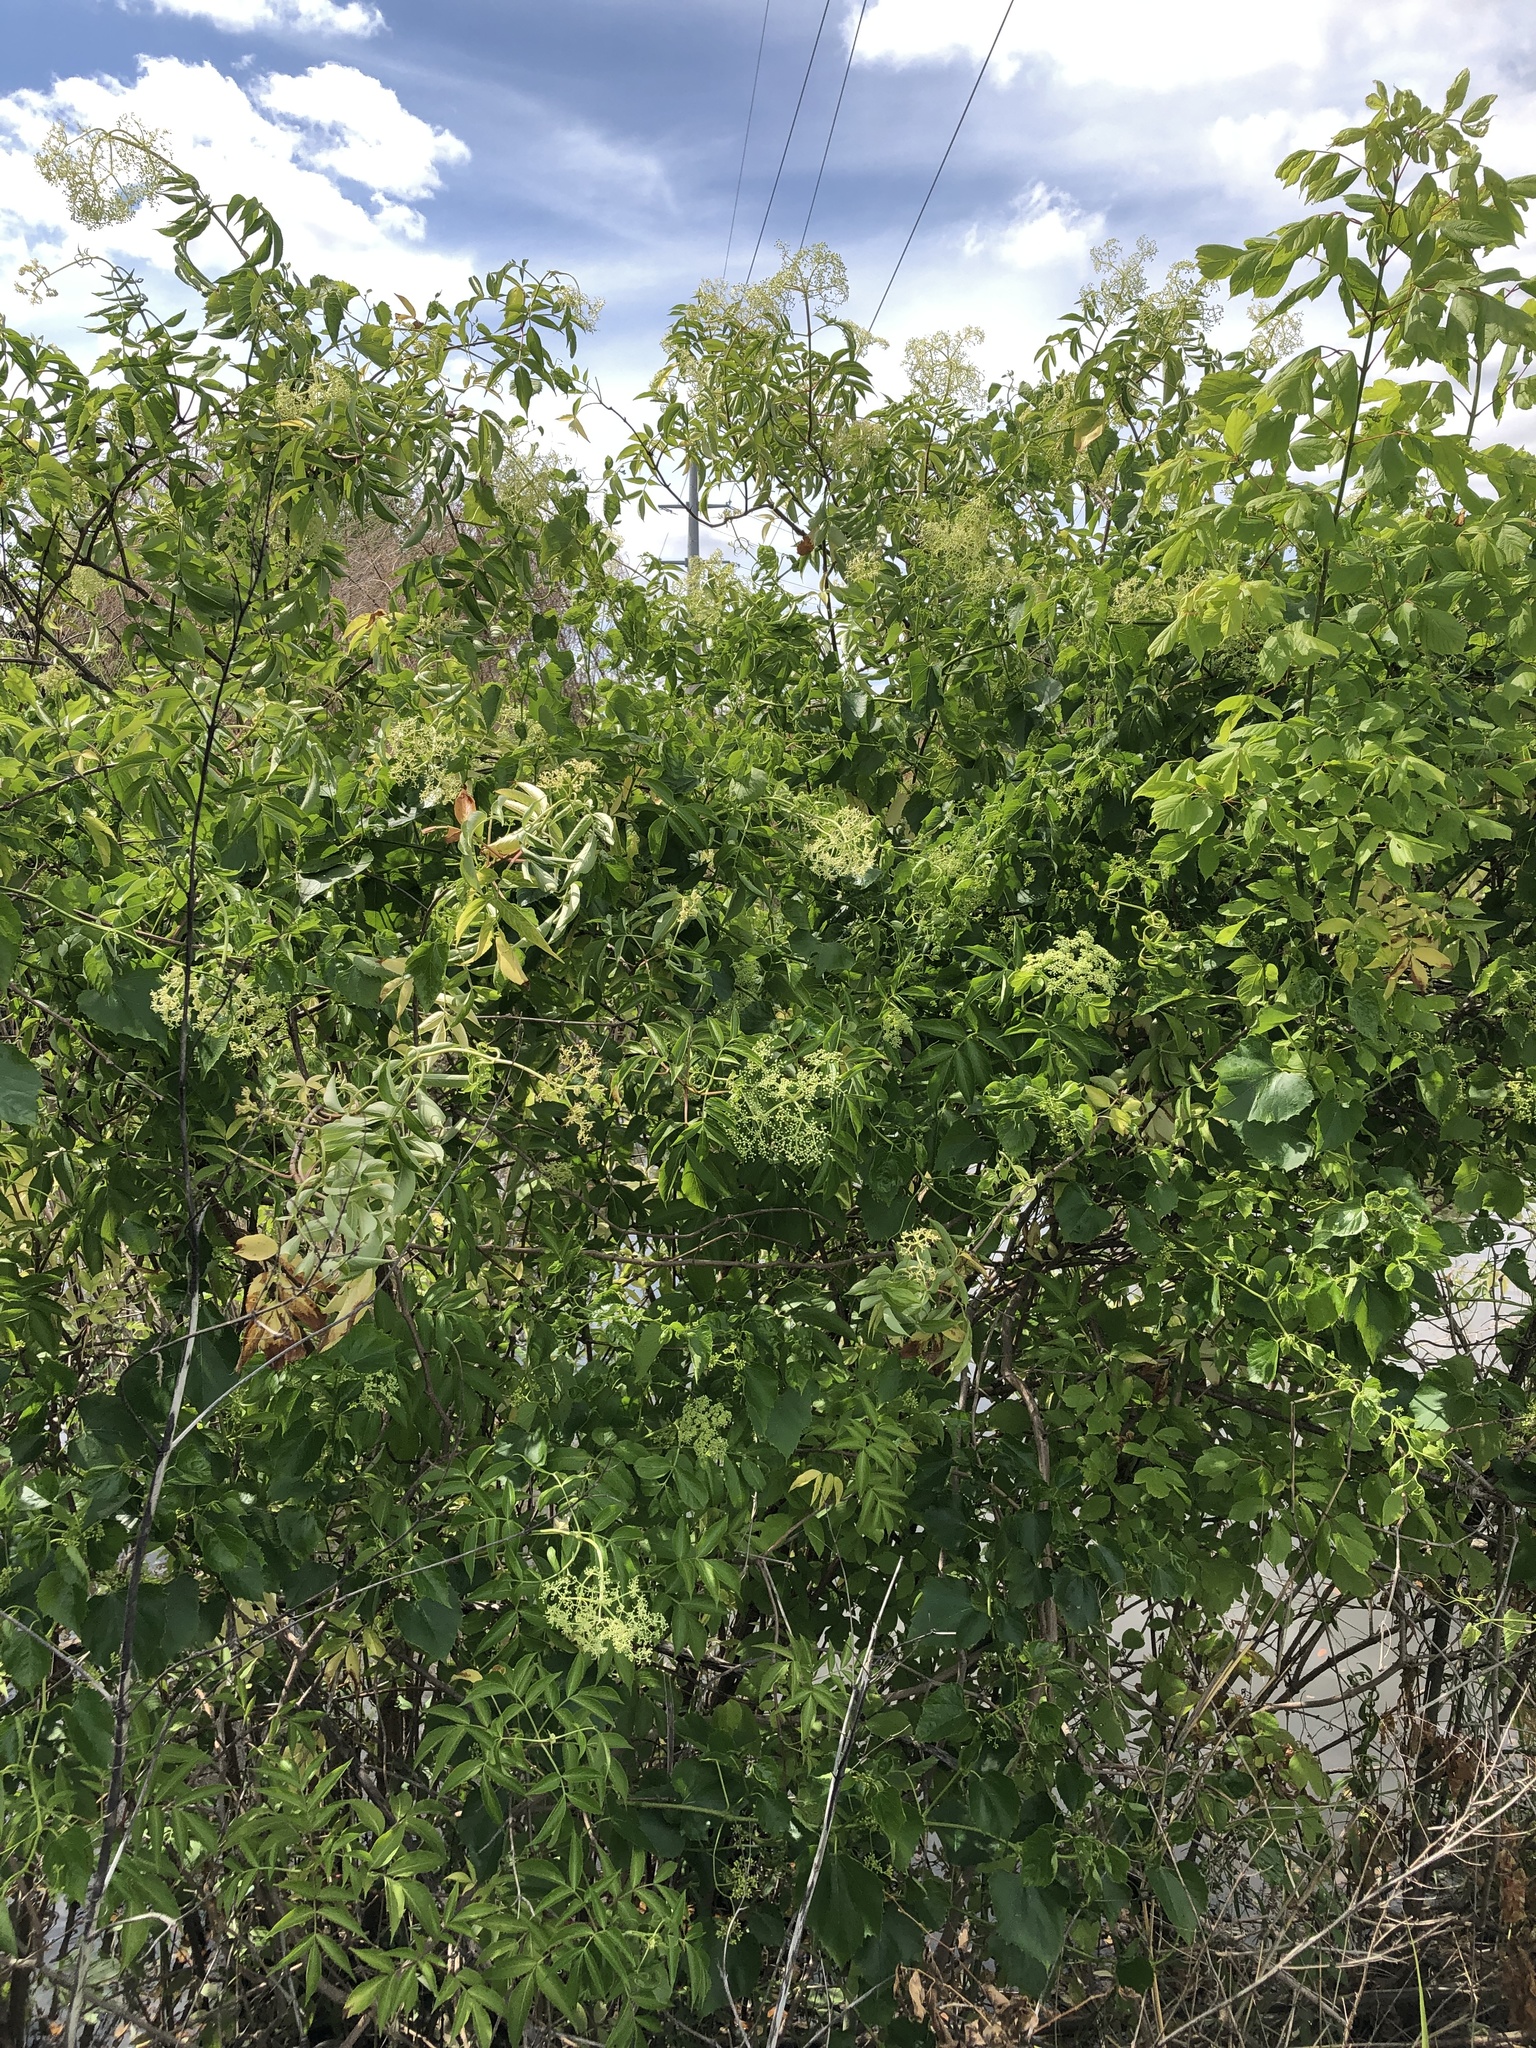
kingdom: Plantae
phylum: Tracheophyta
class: Magnoliopsida
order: Dipsacales
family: Viburnaceae
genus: Sambucus
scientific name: Sambucus canadensis
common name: American elder
